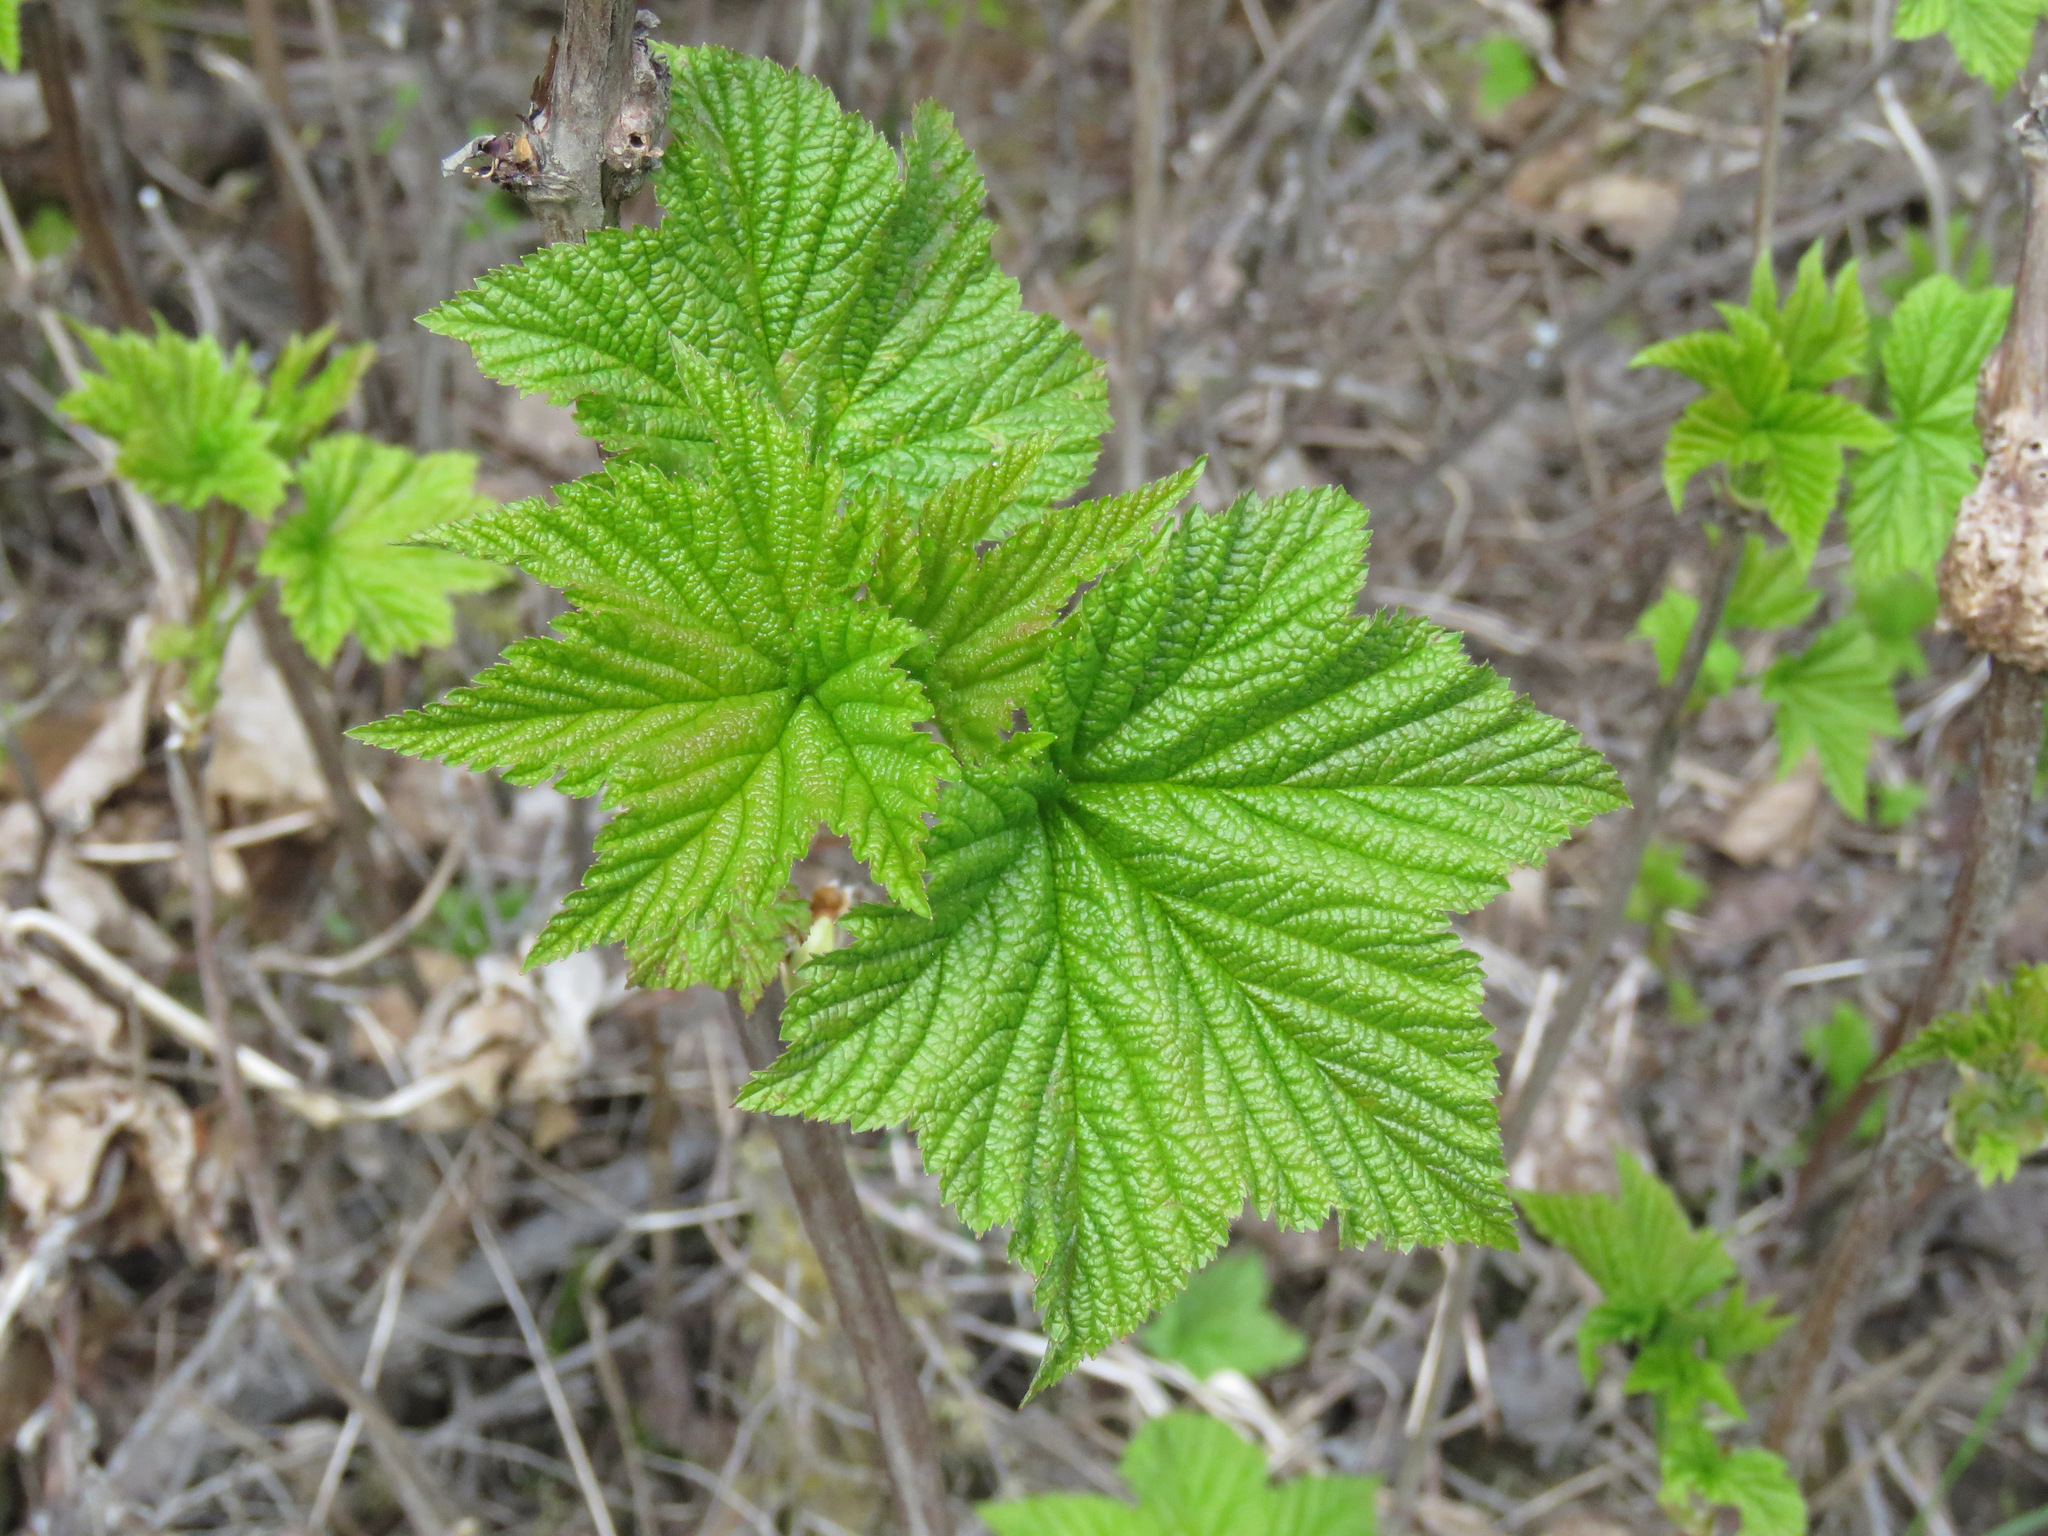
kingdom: Plantae
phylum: Tracheophyta
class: Magnoliopsida
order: Rosales
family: Rosaceae
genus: Rubus
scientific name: Rubus parviflorus
